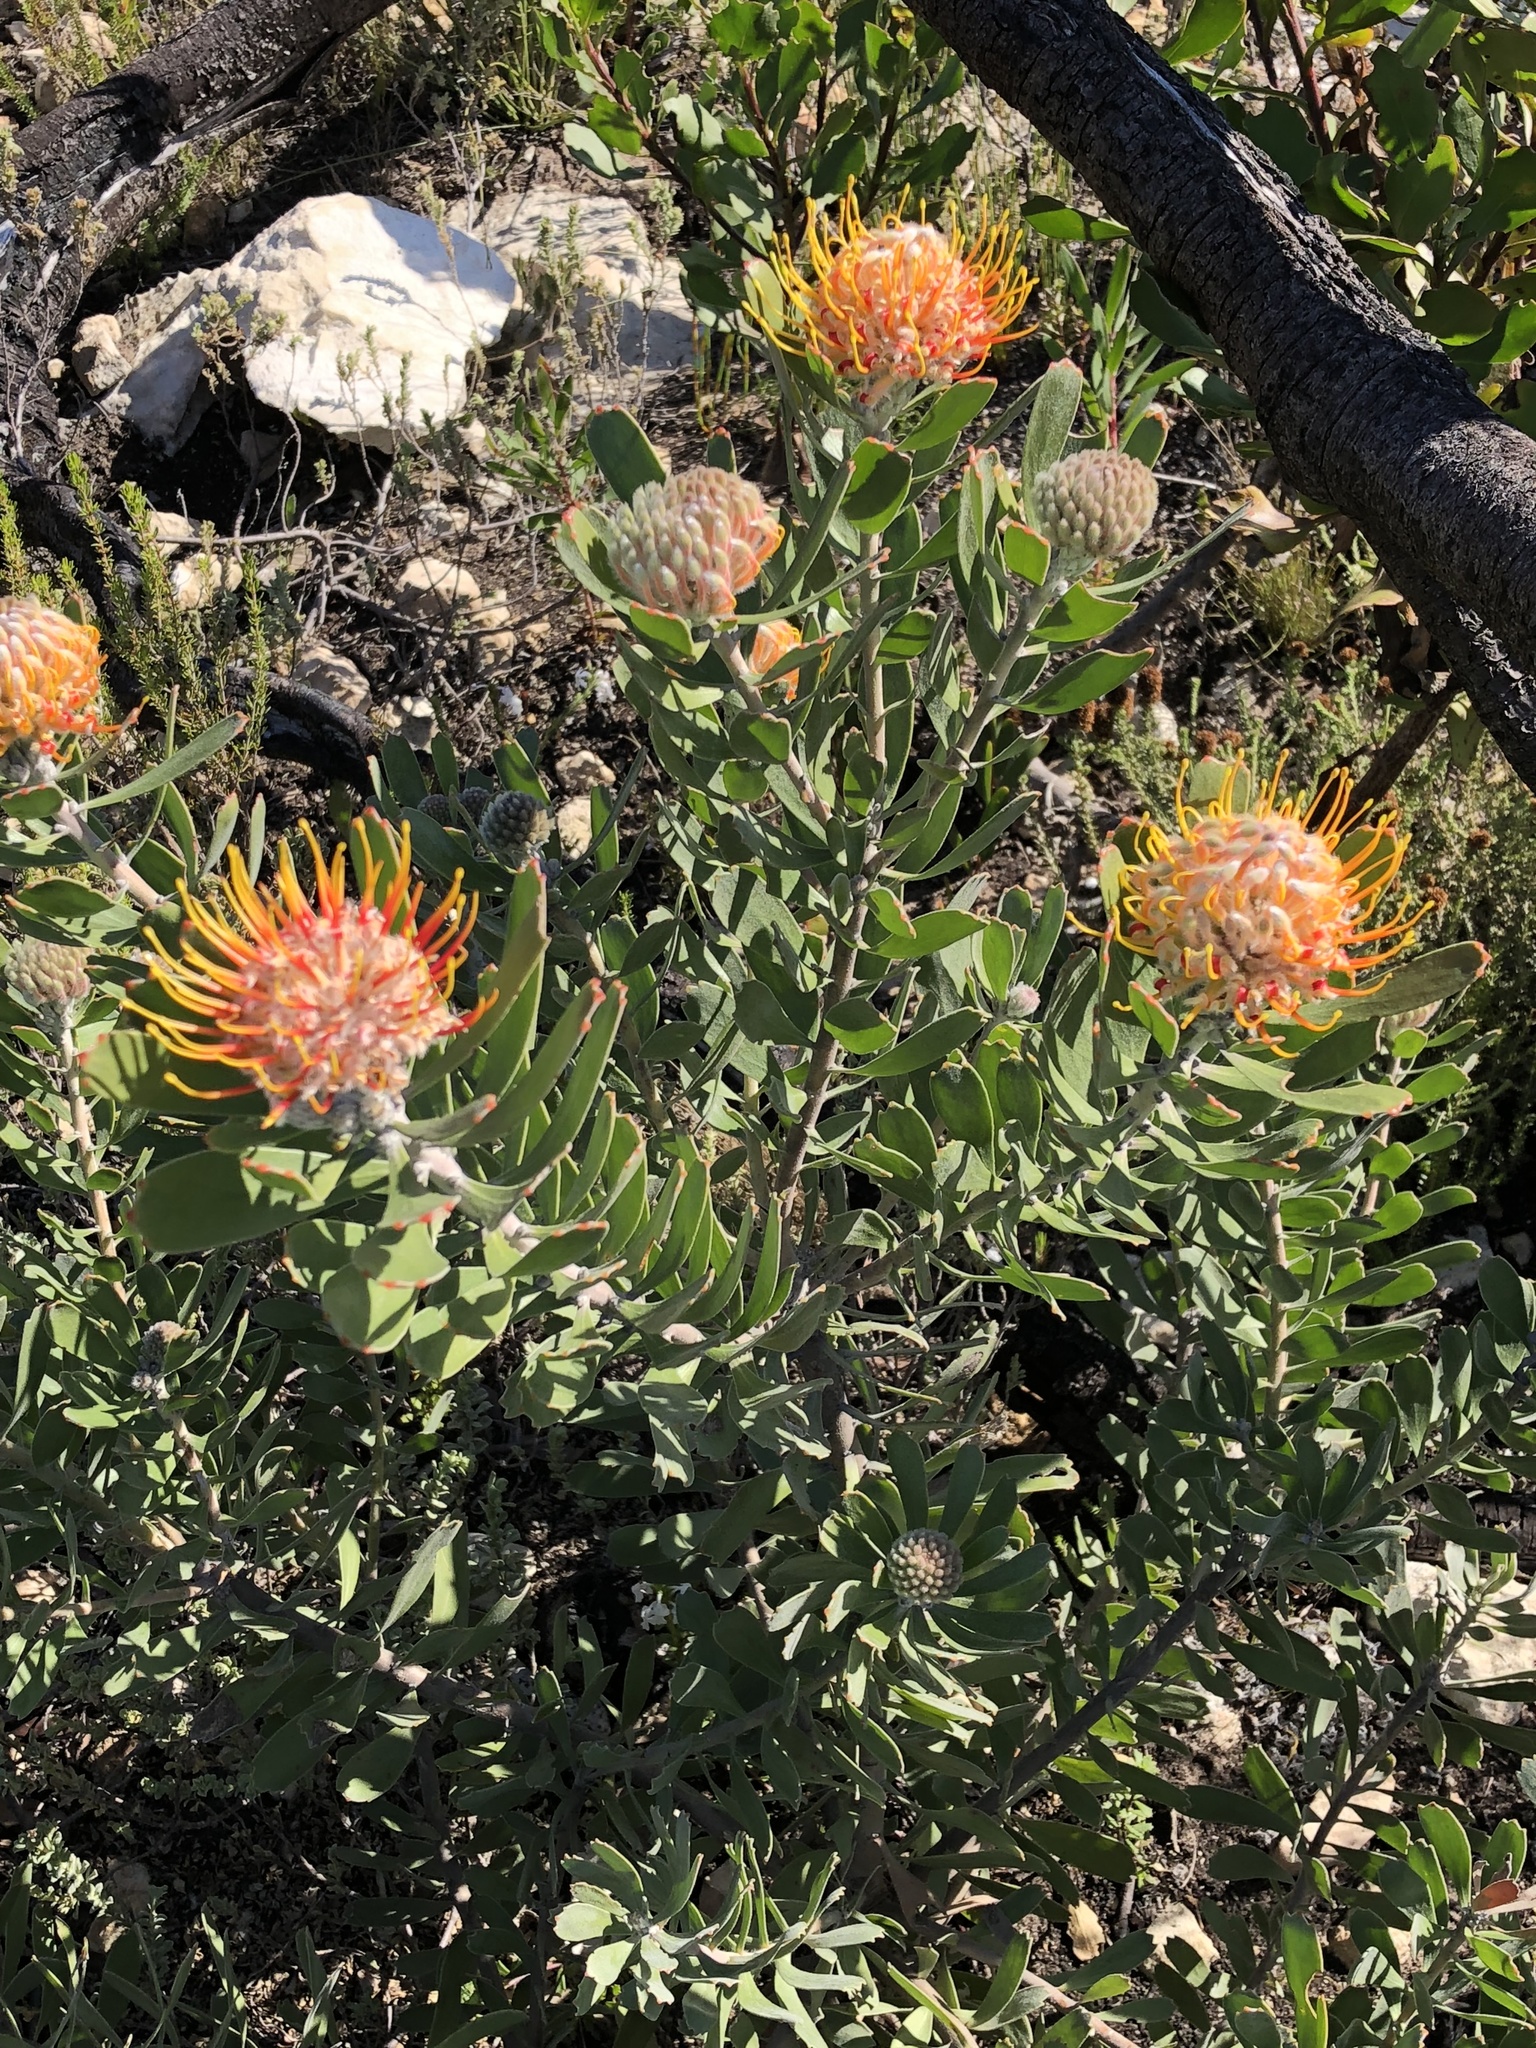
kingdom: Plantae
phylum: Tracheophyta
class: Magnoliopsida
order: Proteales
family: Proteaceae
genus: Leucospermum
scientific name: Leucospermum truncatum
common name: Limestone pincushion
